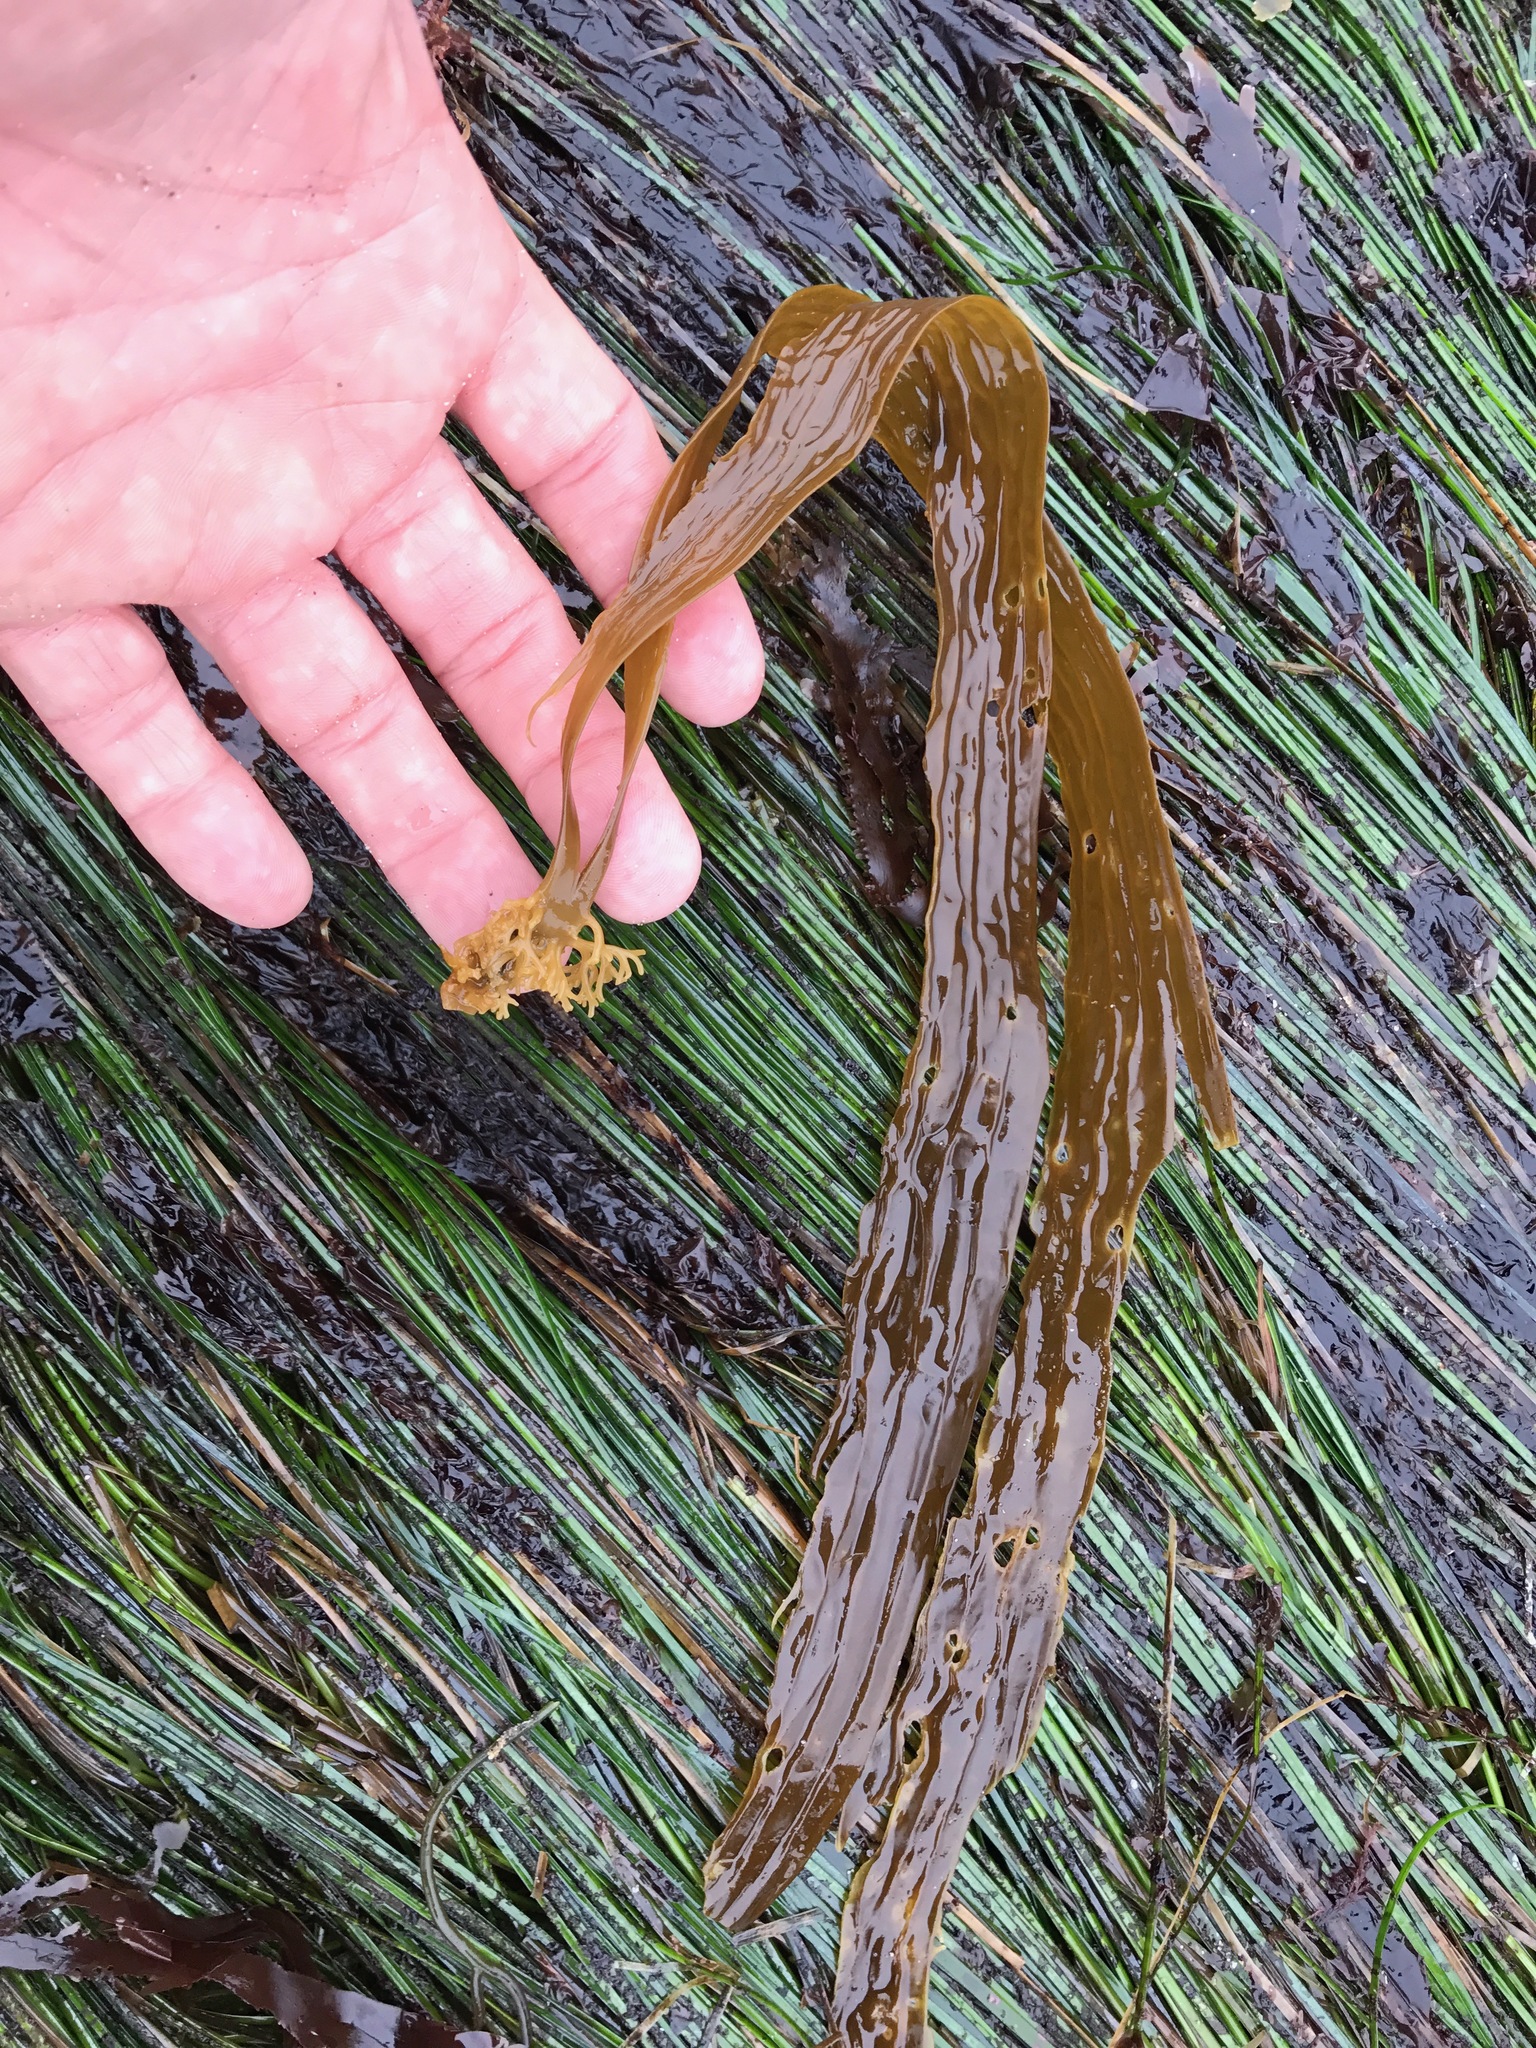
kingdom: Chromista
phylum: Ochrophyta
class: Phaeophyceae
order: Laminariales
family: Costariaceae
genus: Dictyoneurum
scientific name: Dictyoneurum californicum
